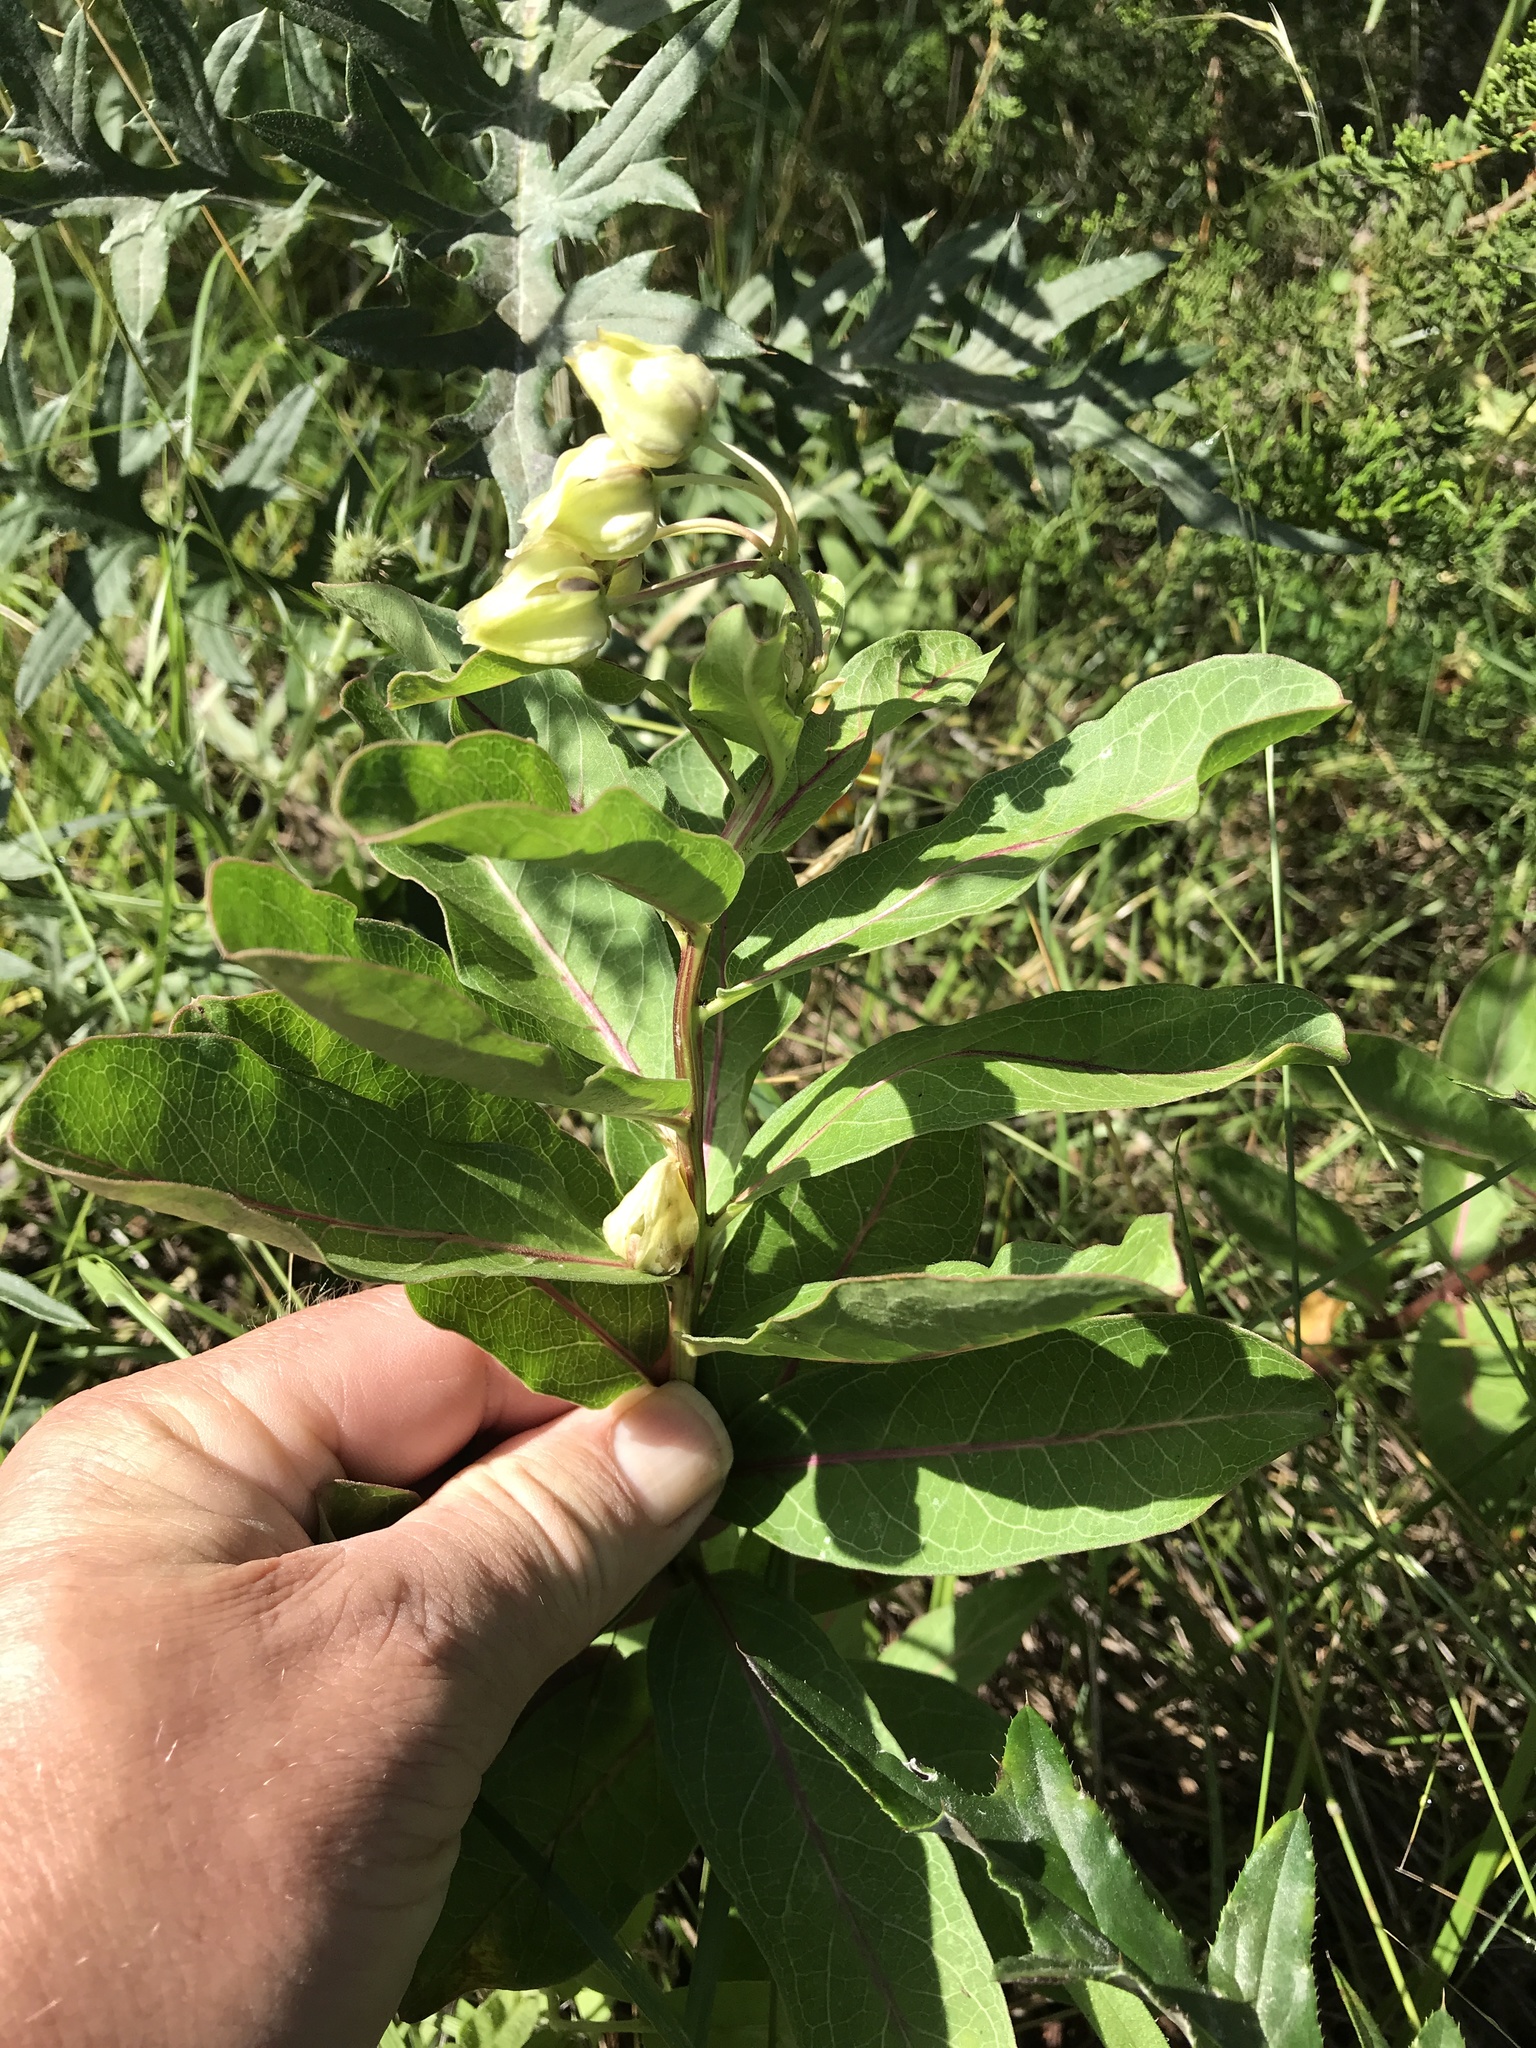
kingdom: Plantae
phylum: Tracheophyta
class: Magnoliopsida
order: Gentianales
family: Apocynaceae
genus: Asclepias
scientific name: Asclepias viridis
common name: Antelope-horns
